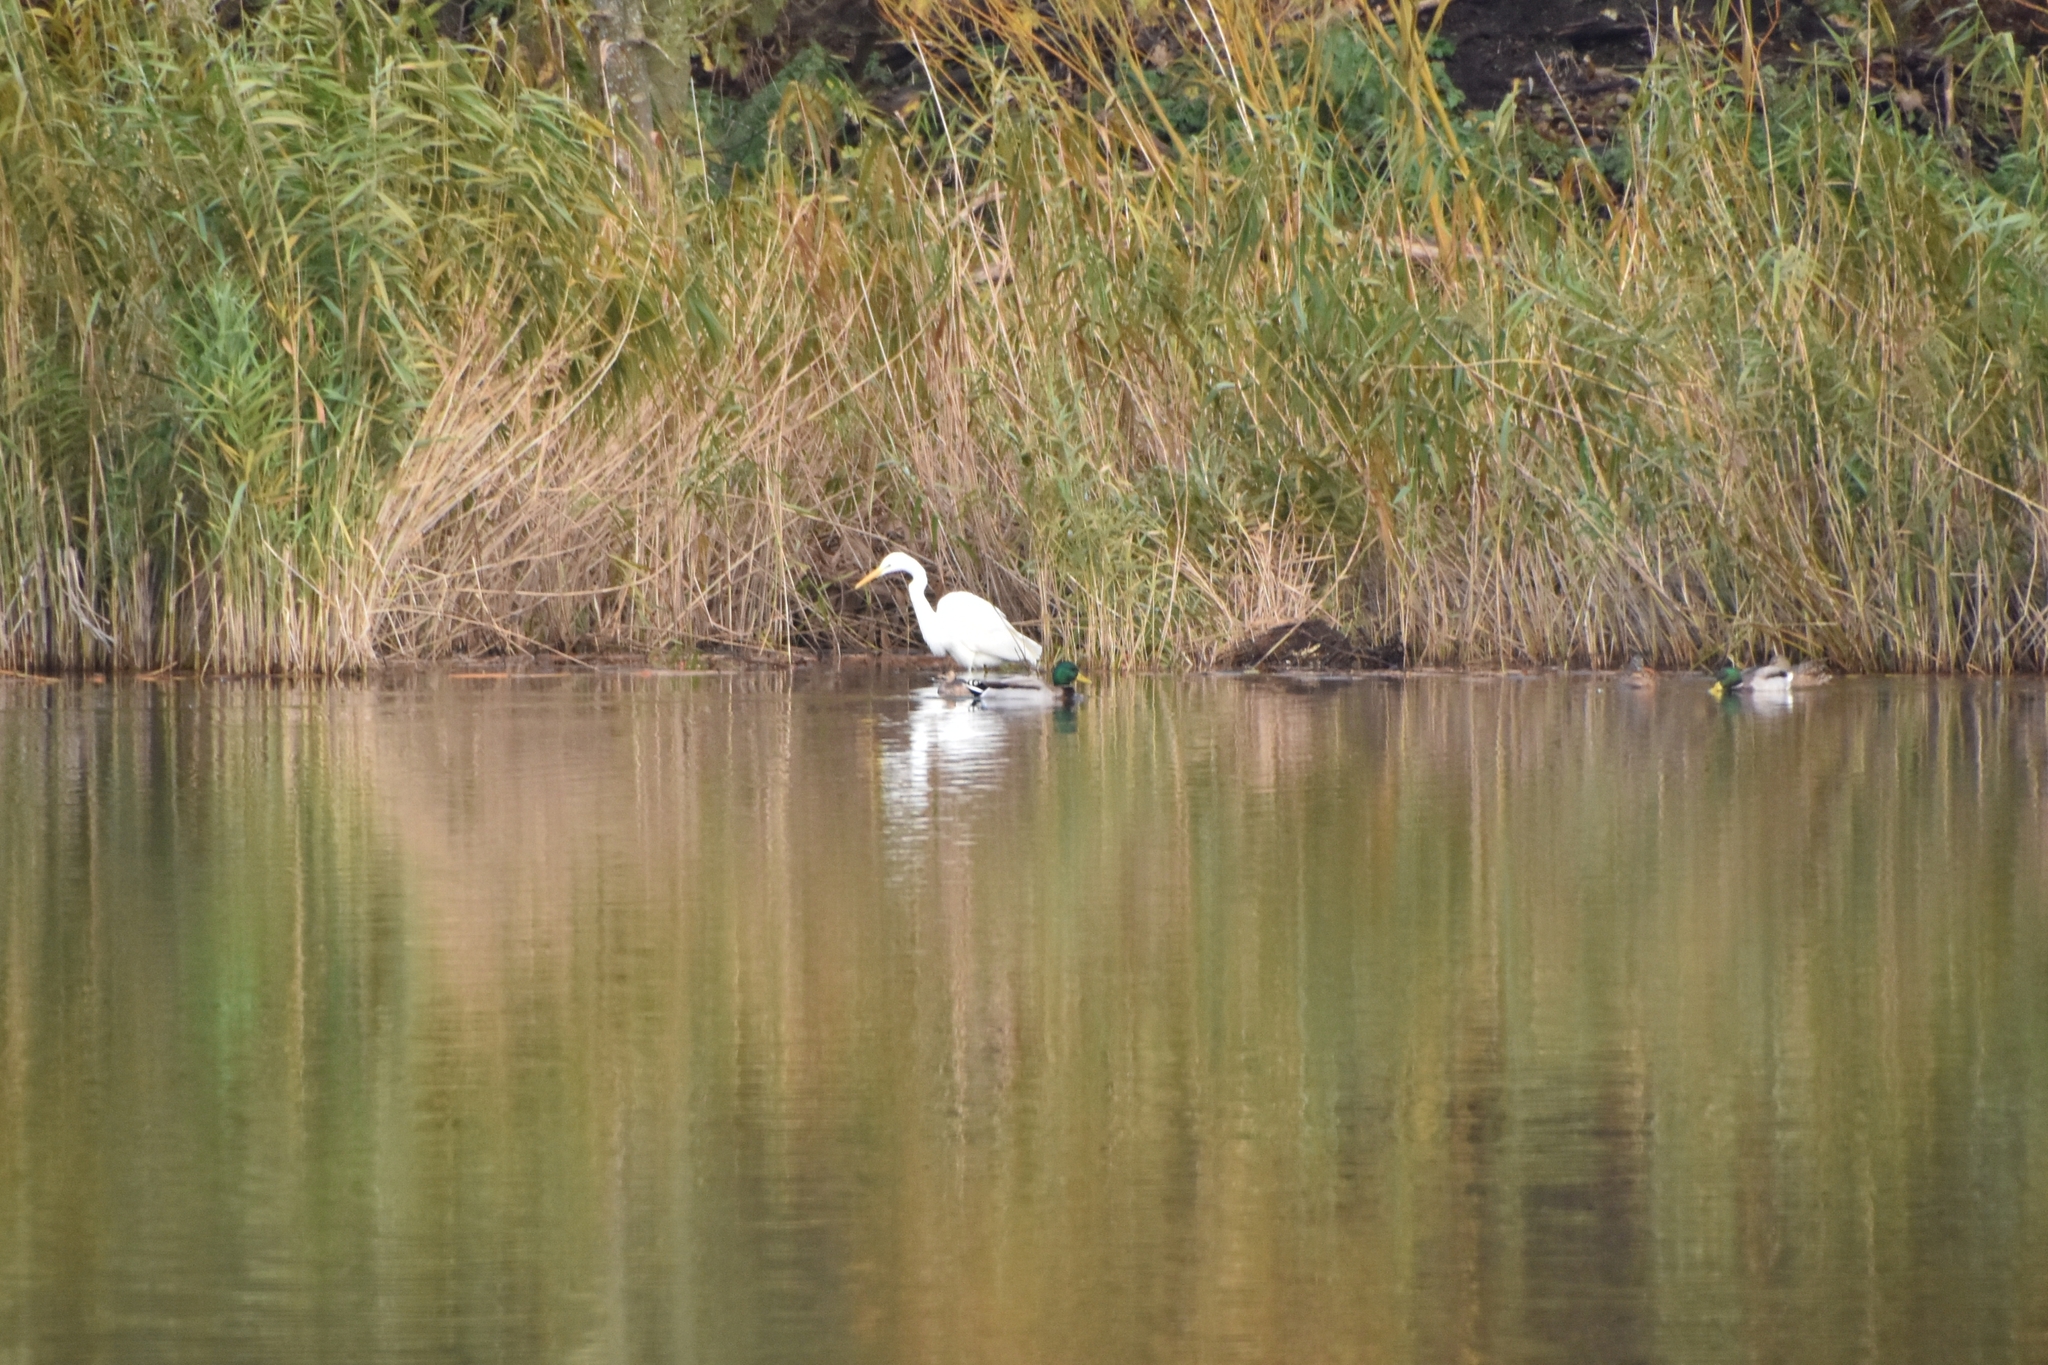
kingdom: Animalia
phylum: Chordata
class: Aves
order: Pelecaniformes
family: Ardeidae
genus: Ardea
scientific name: Ardea alba
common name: Great egret
